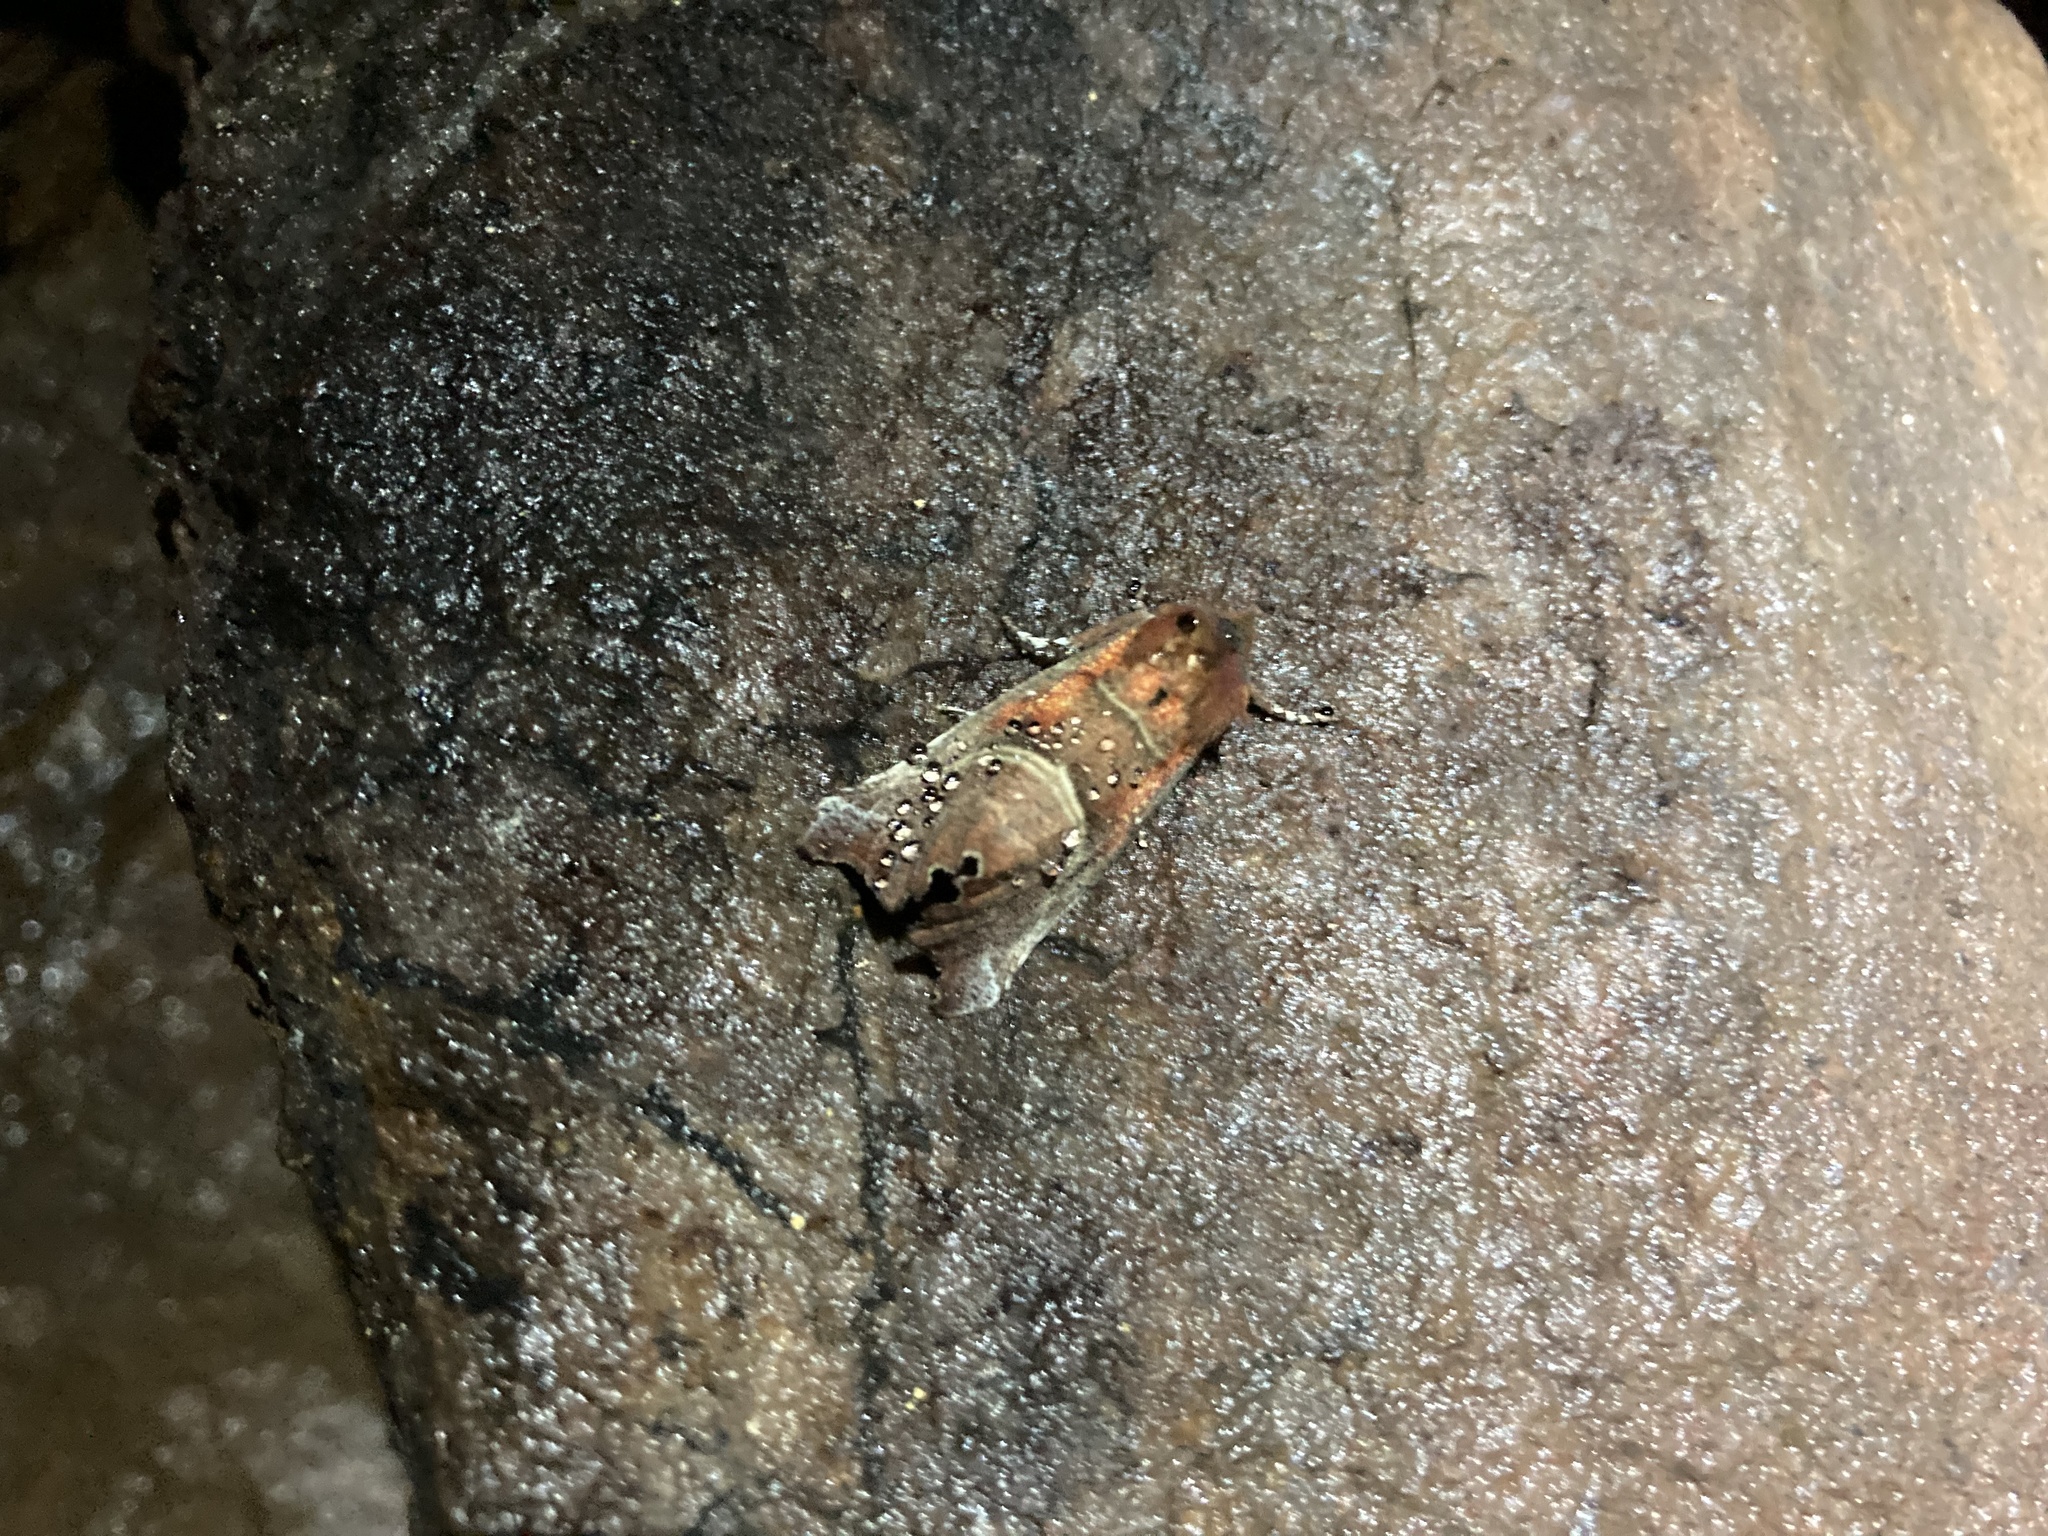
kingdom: Animalia
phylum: Arthropoda
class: Insecta
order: Lepidoptera
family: Erebidae
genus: Scoliopteryx
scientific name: Scoliopteryx libatrix
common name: Herald
